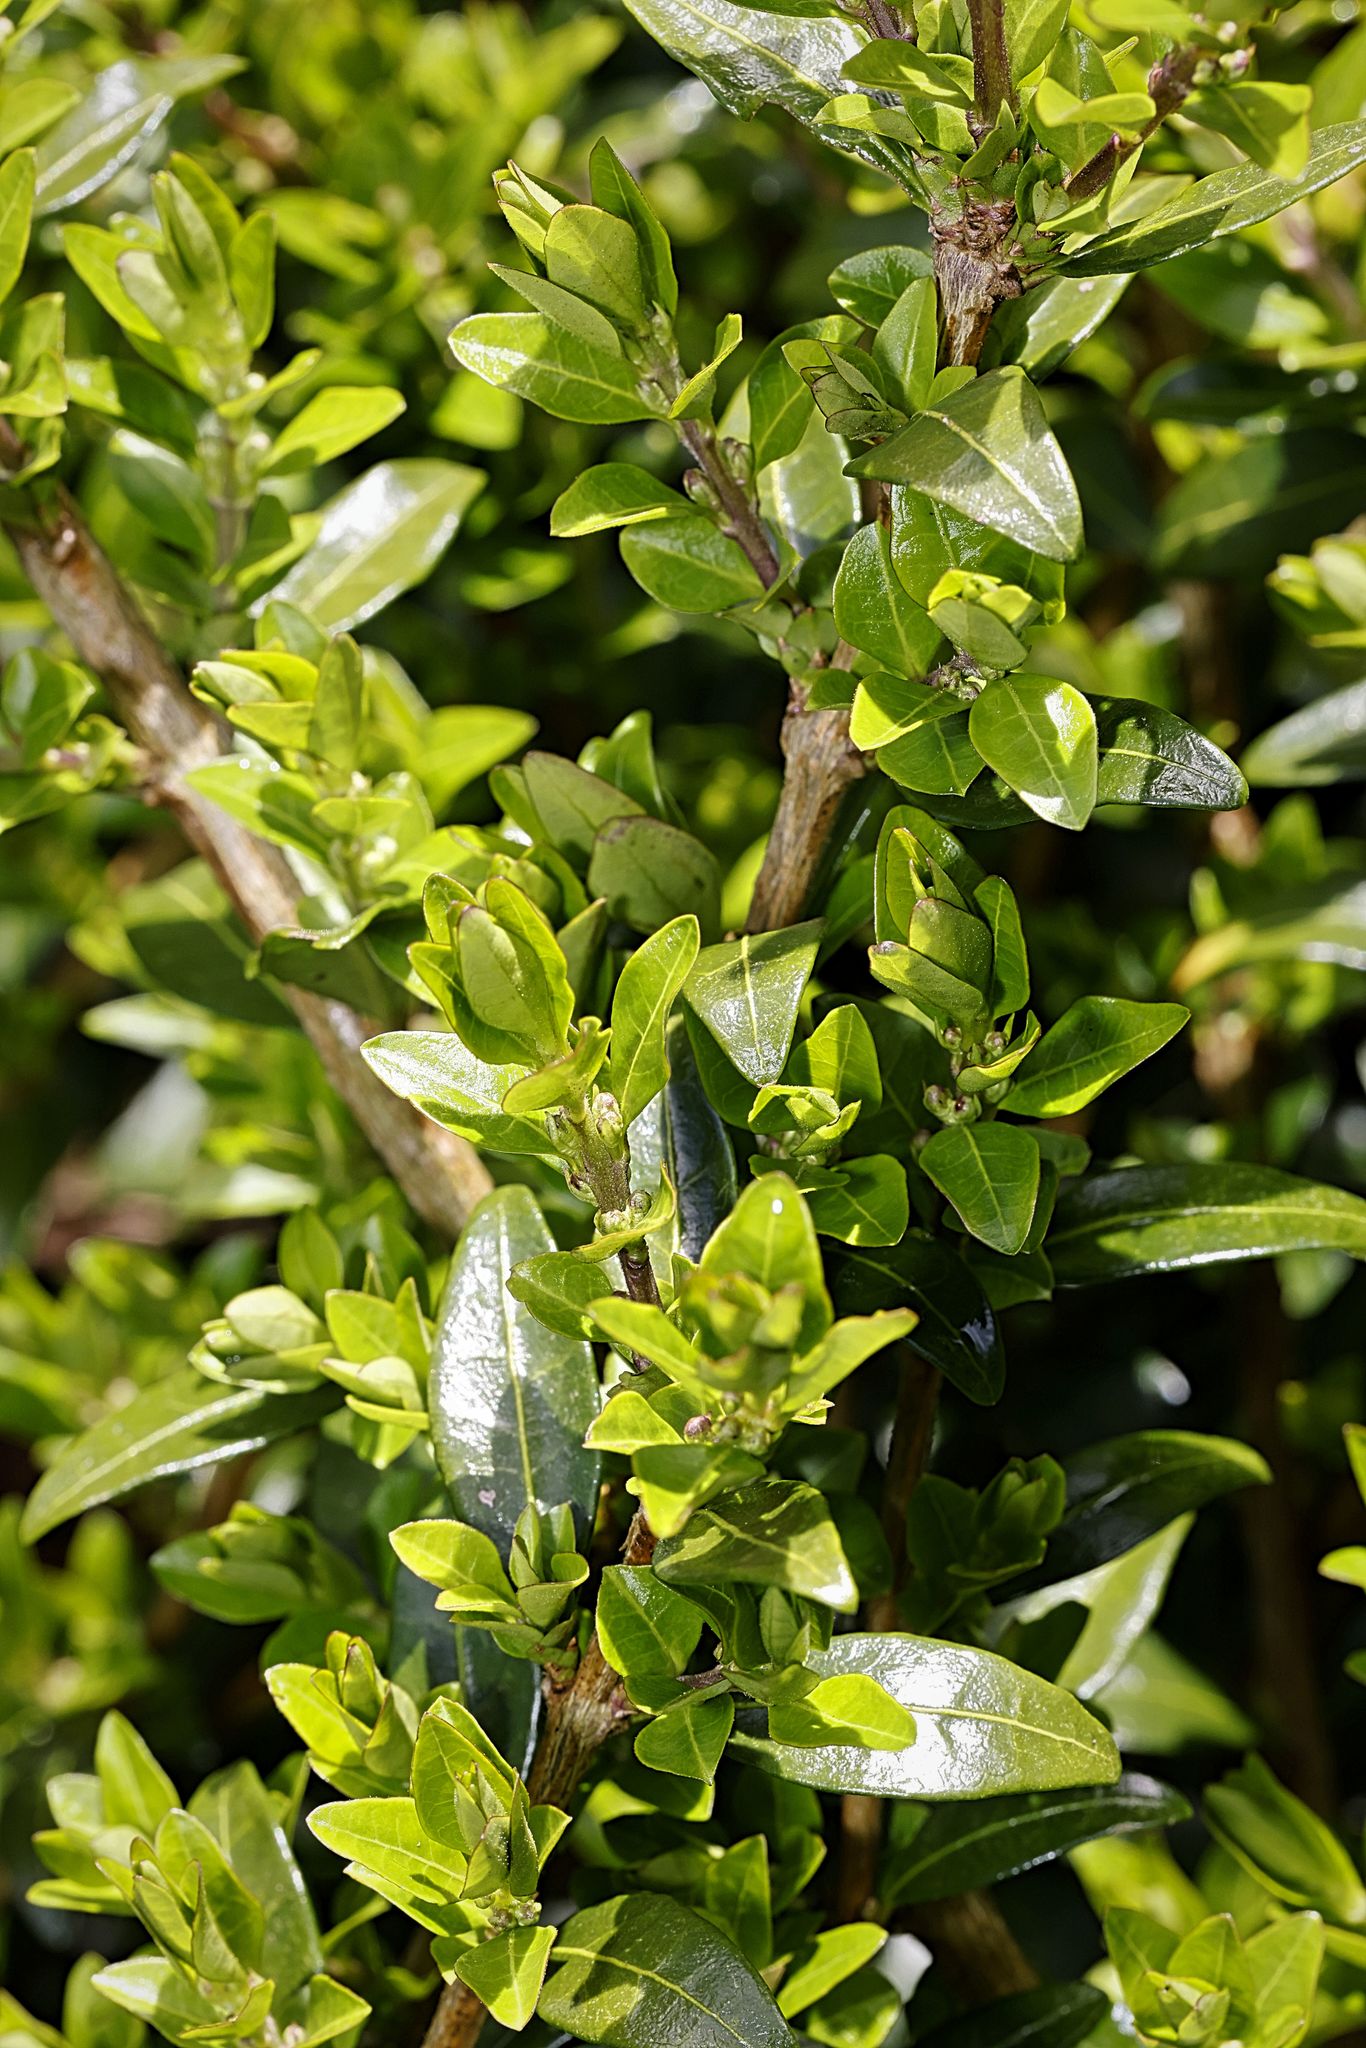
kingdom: Plantae
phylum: Tracheophyta
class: Magnoliopsida
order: Dipsacales
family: Caprifoliaceae
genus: Lonicera
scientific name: Lonicera pileata
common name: Box-leaved honeysuckle
